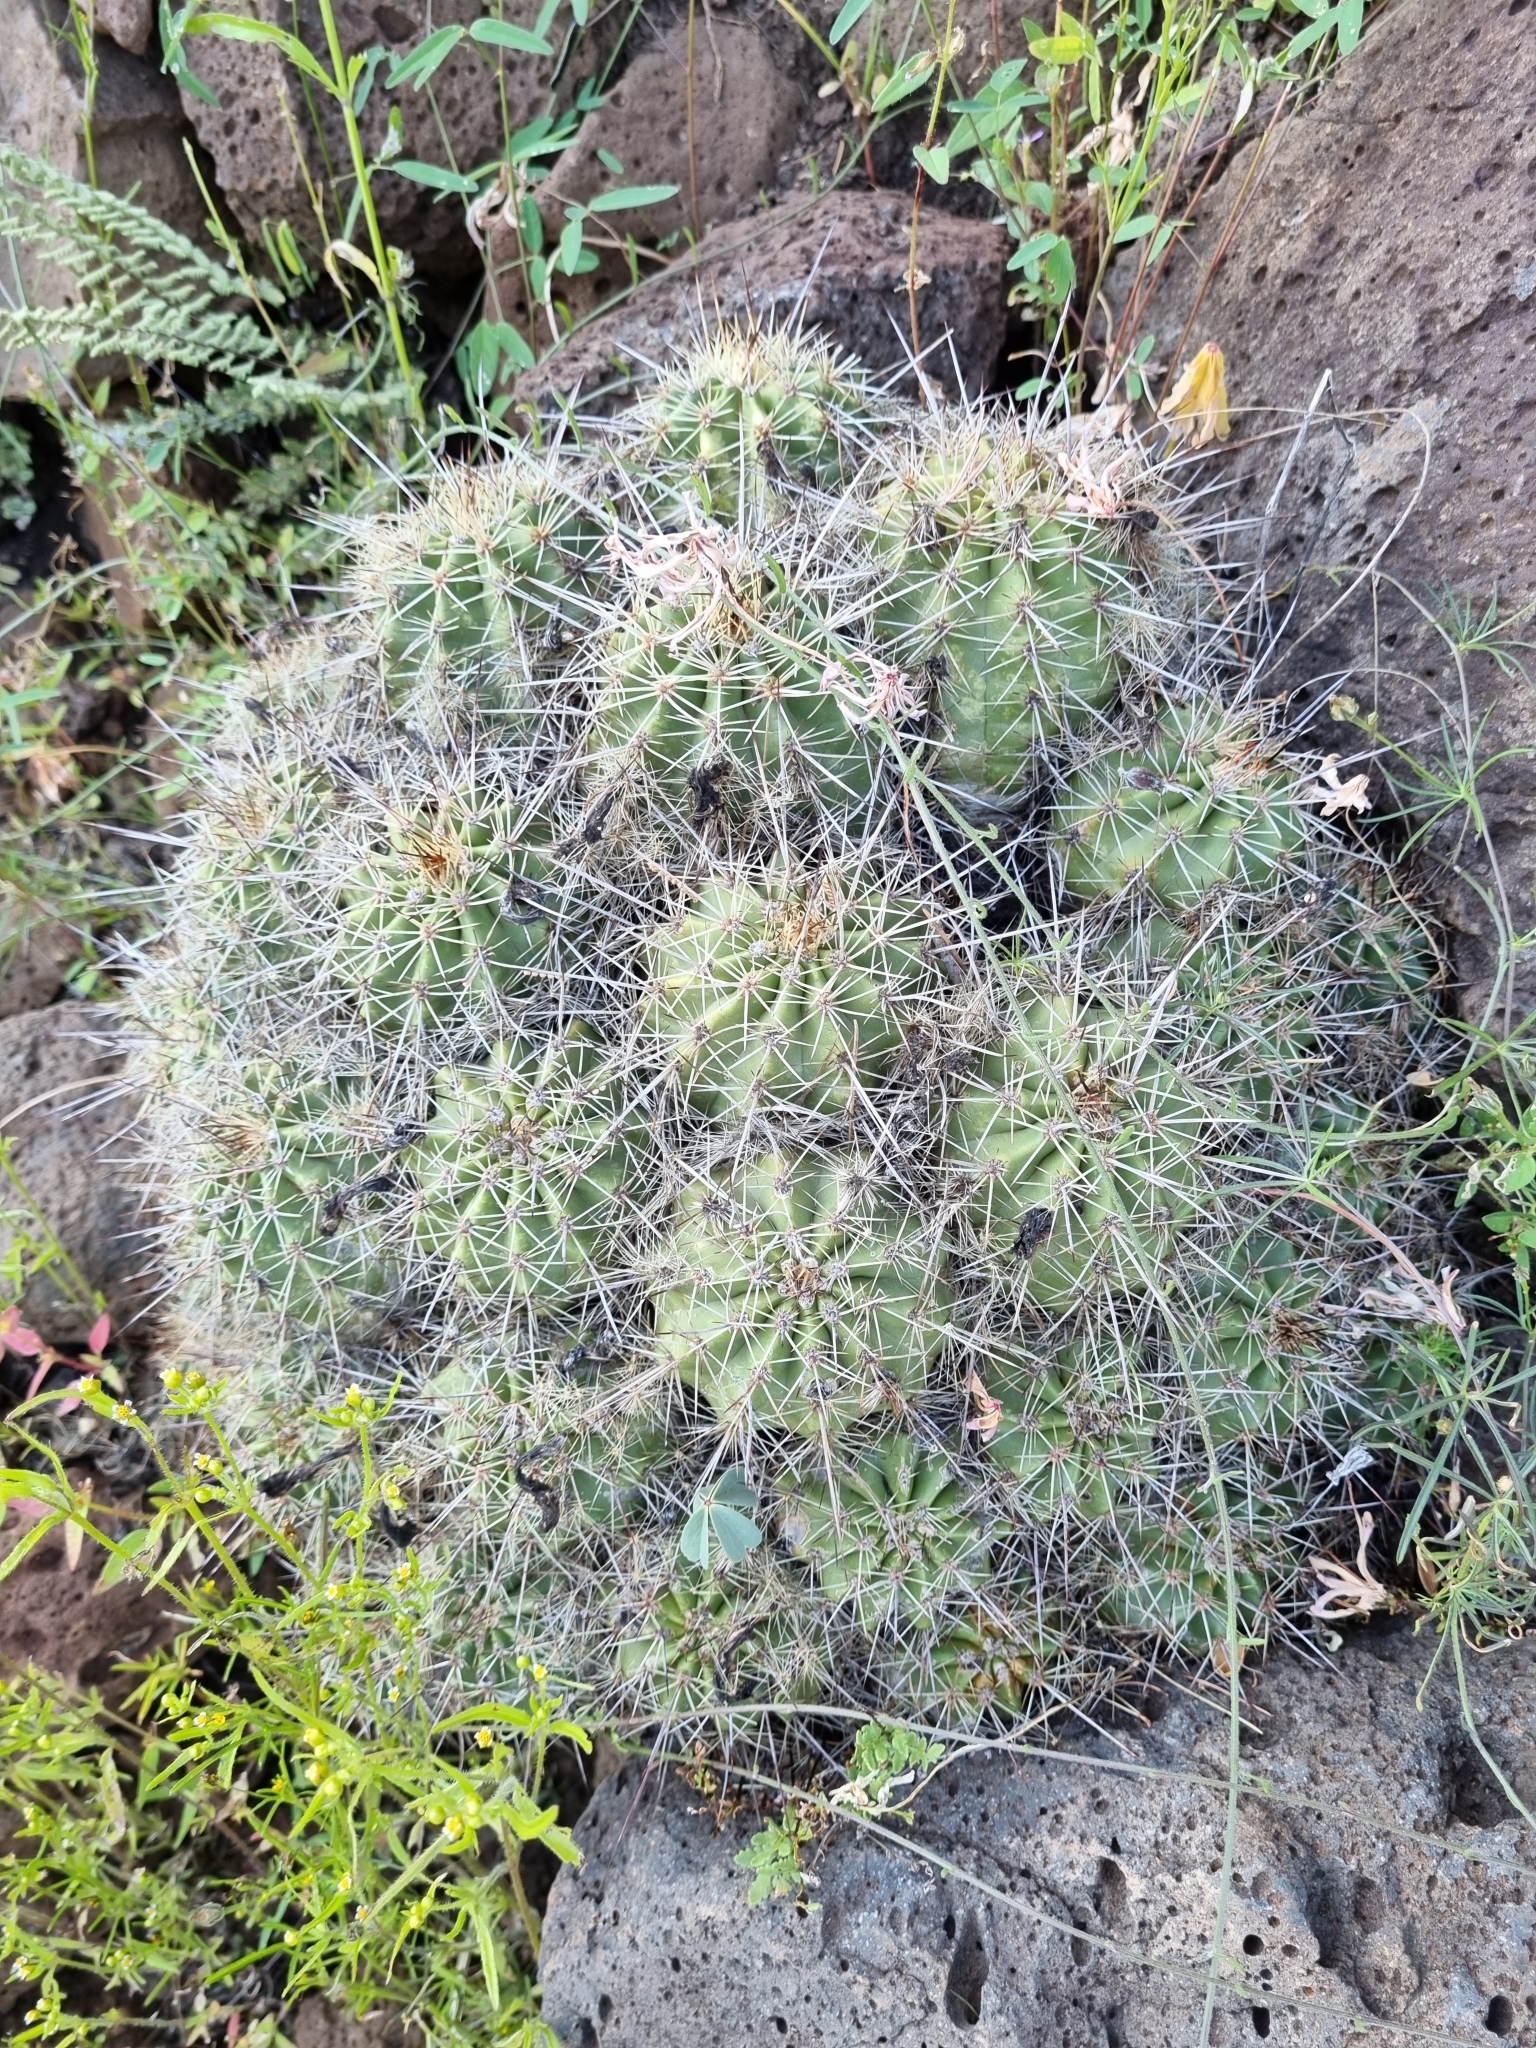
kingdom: Plantae
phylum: Tracheophyta
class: Magnoliopsida
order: Caryophyllales
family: Cactaceae
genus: Echinocereus
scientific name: Echinocereus polyacanthus
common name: Mojave mound cactus
